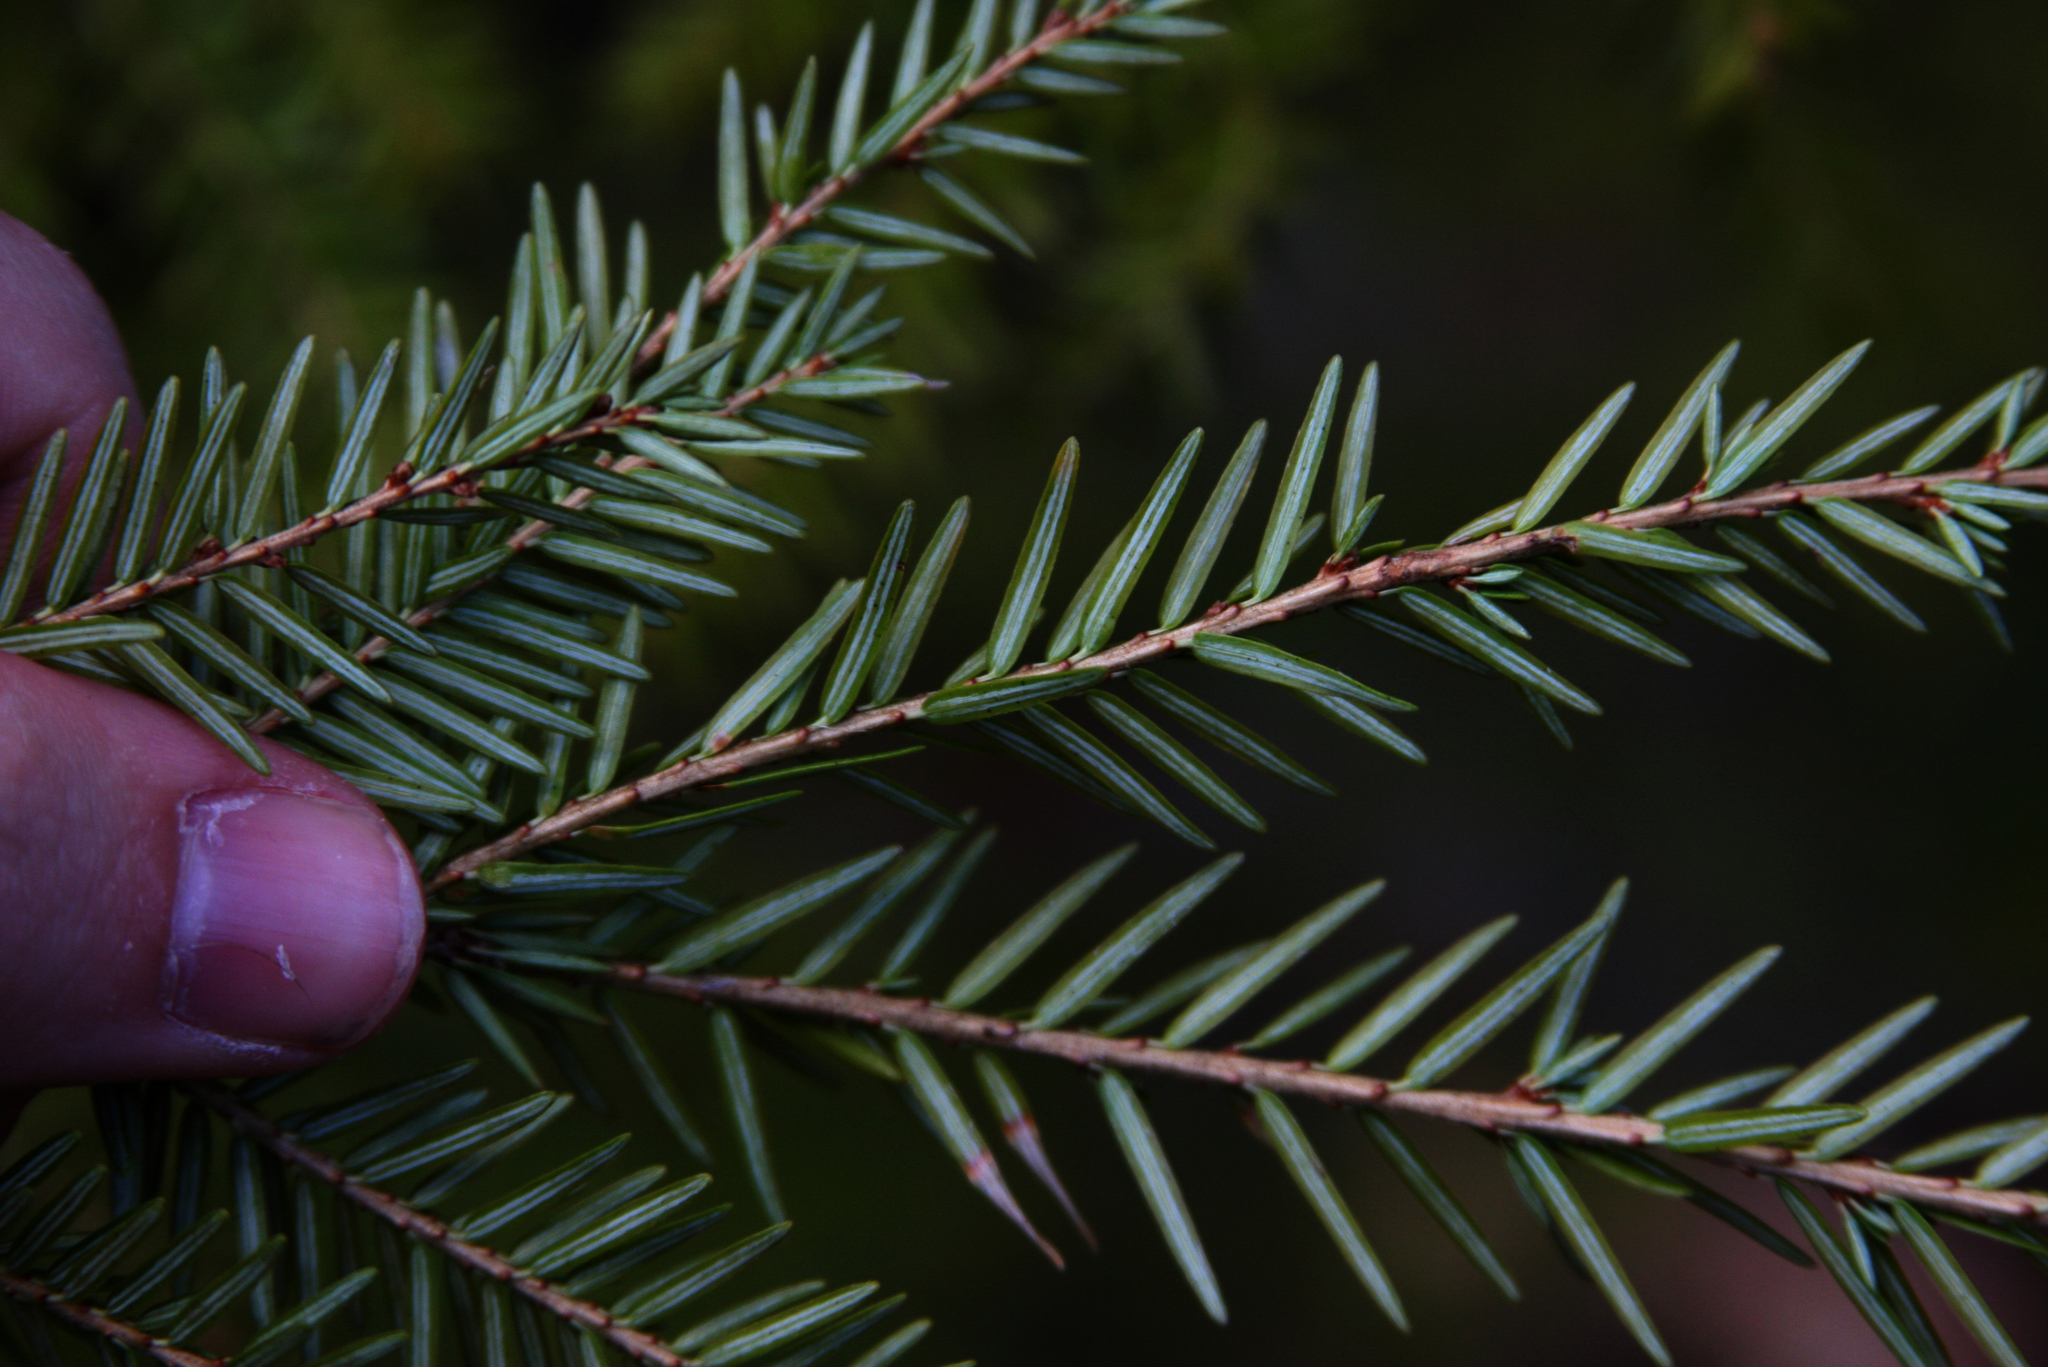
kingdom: Plantae
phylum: Tracheophyta
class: Pinopsida
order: Pinales
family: Pinaceae
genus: Tsuga
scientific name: Tsuga canadensis
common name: Eastern hemlock
